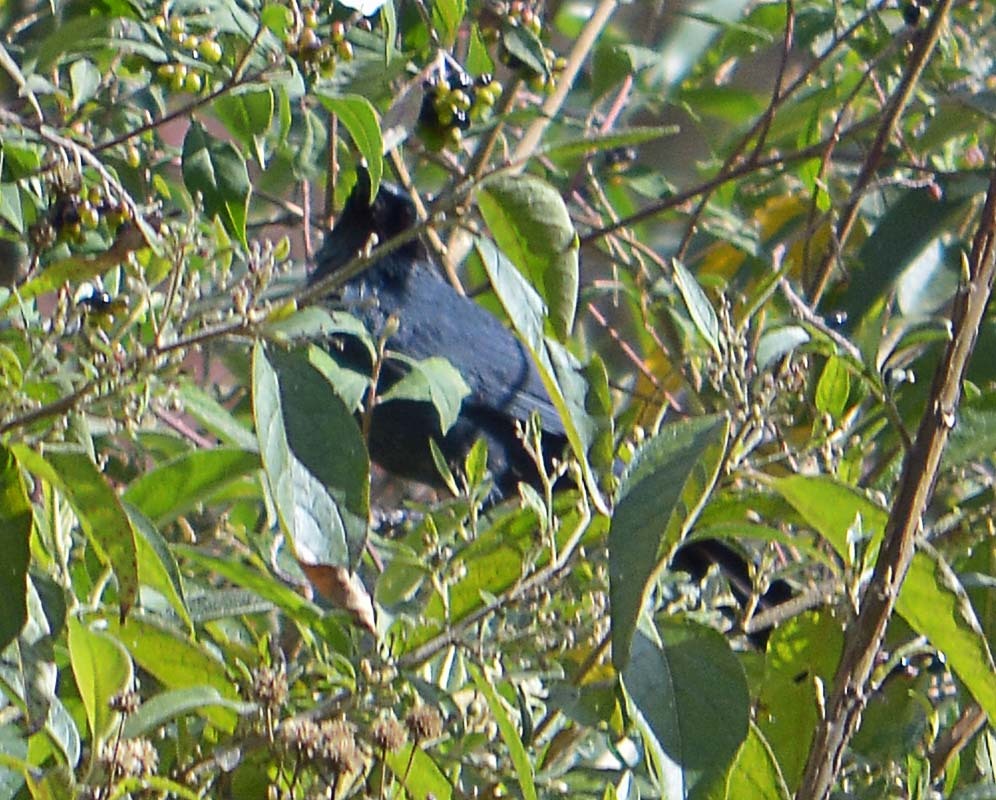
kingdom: Animalia
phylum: Chordata
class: Aves
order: Passeriformes
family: Mimidae
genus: Melanotis
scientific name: Melanotis caerulescens
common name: Blue mockingbird
